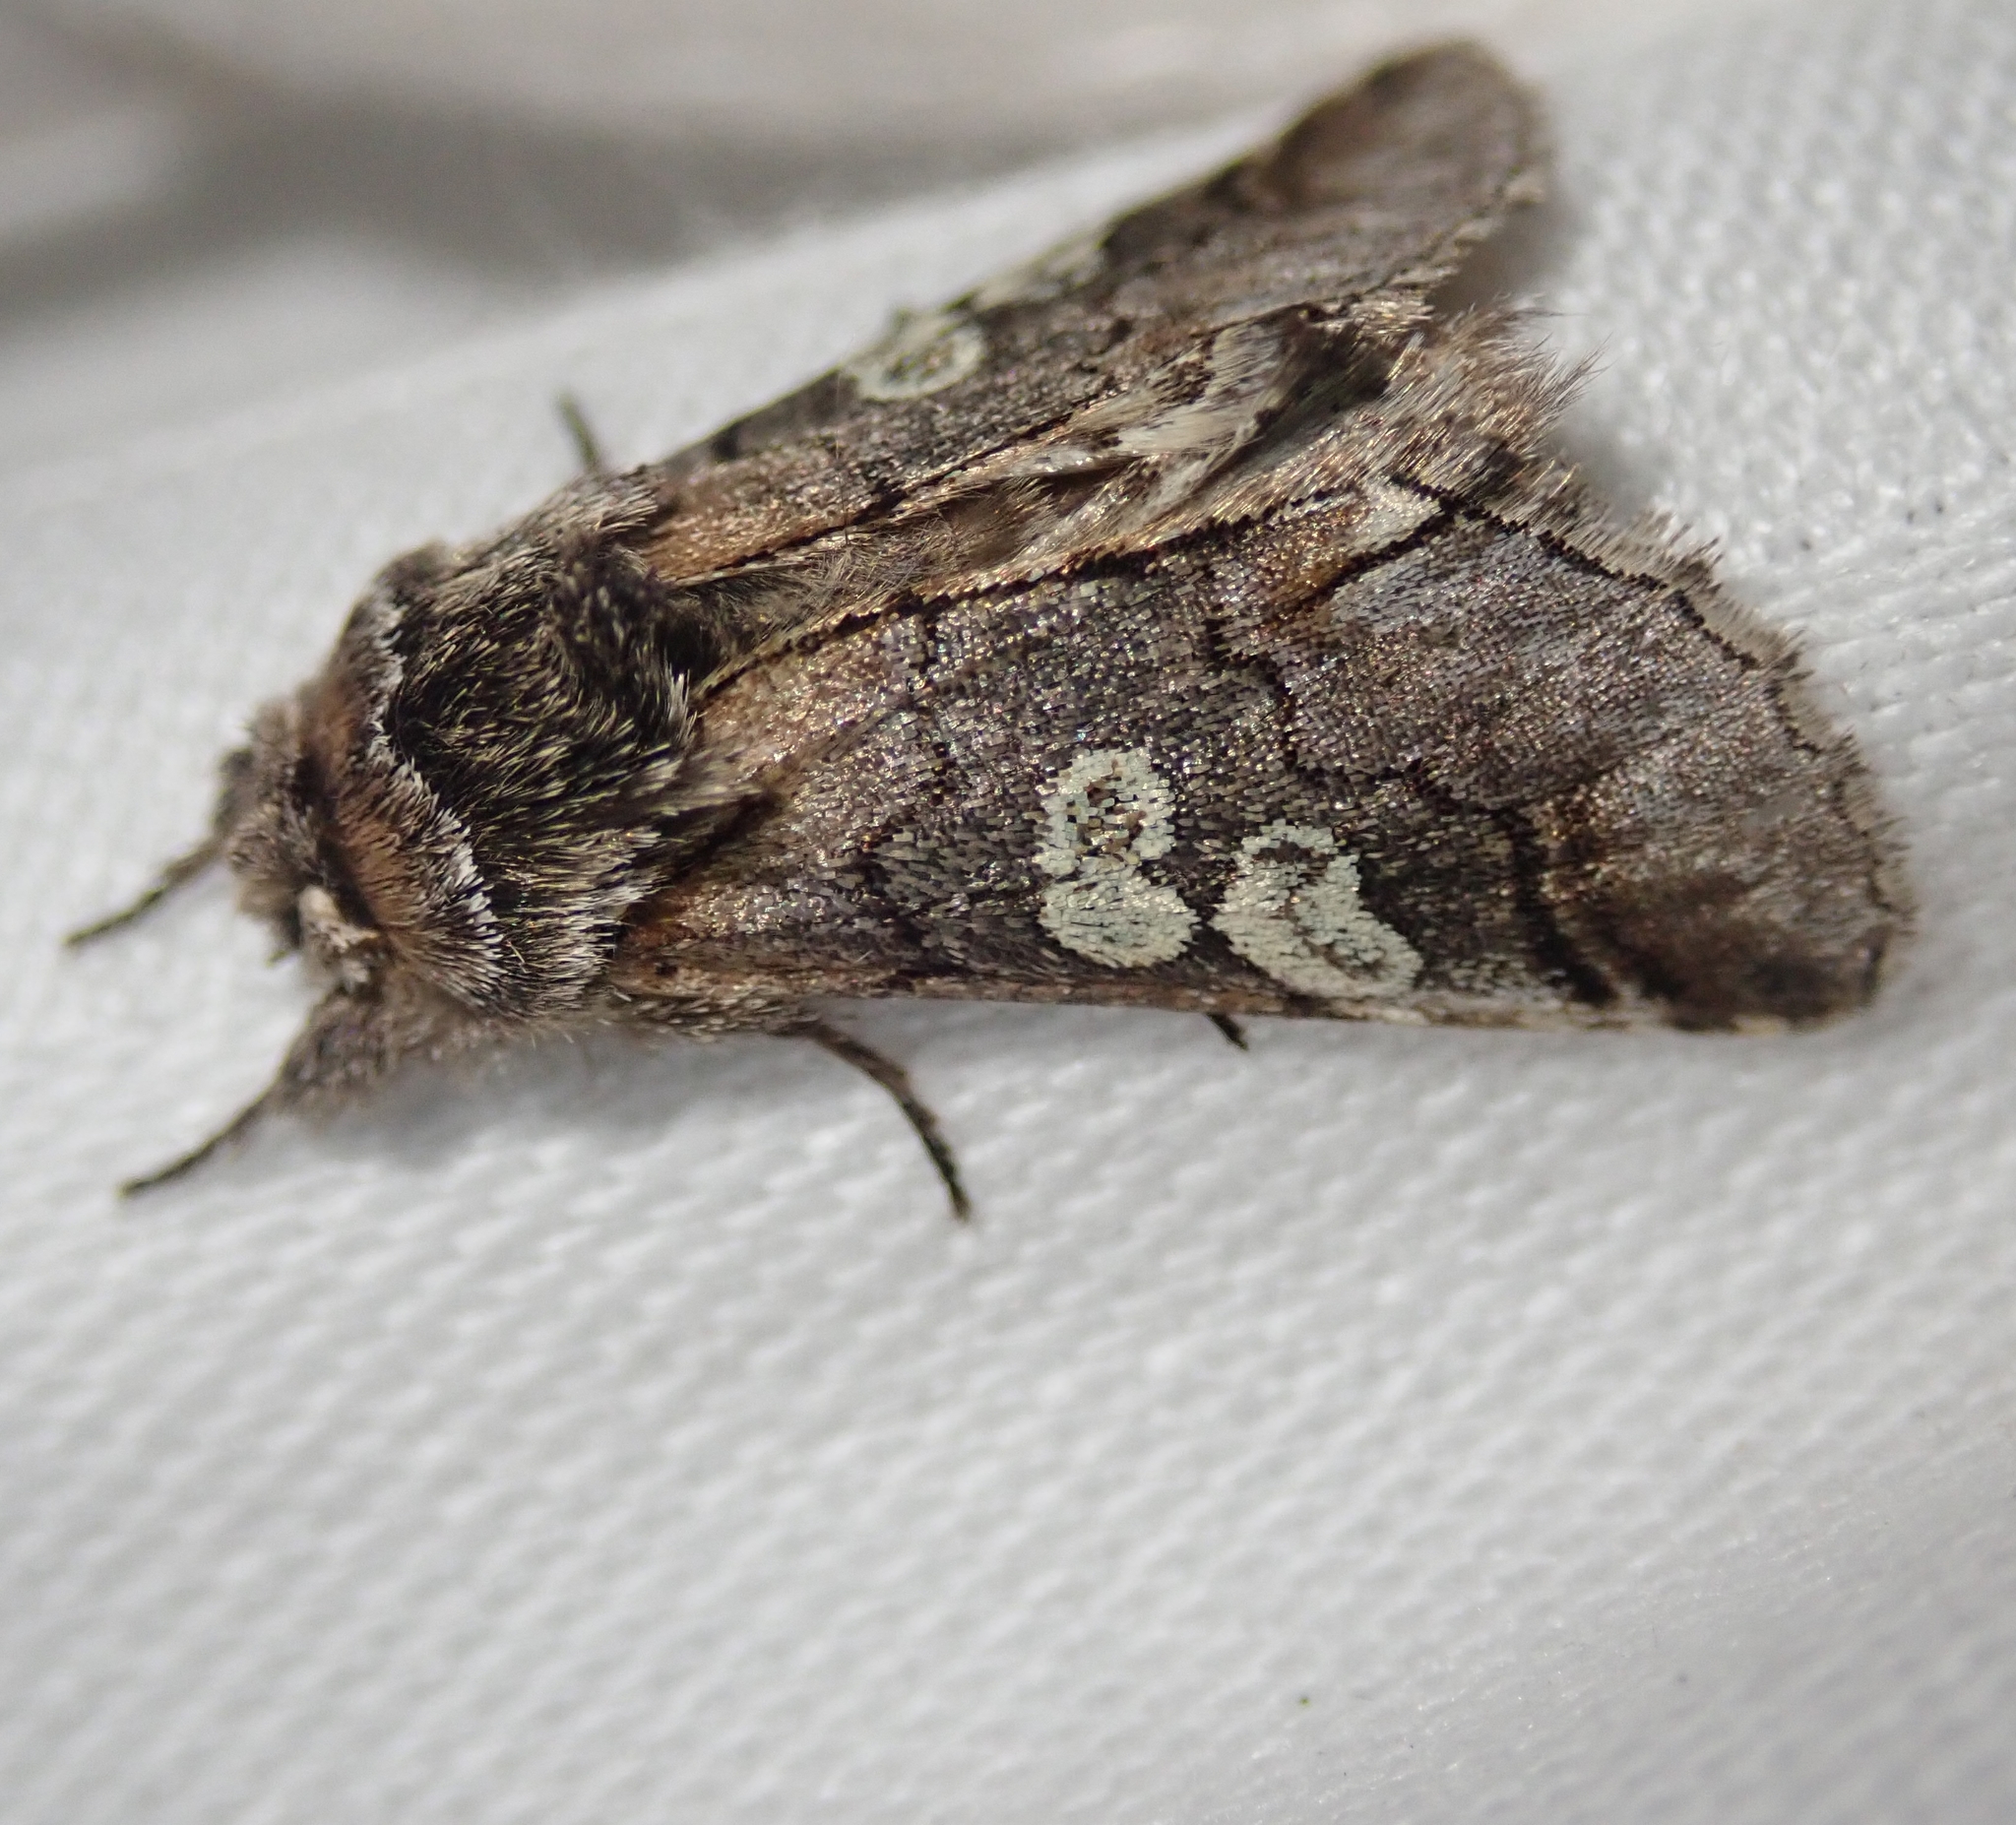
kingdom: Animalia
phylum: Arthropoda
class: Insecta
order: Lepidoptera
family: Noctuidae
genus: Diloba
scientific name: Diloba caeruleocephala
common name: Figure of eight
